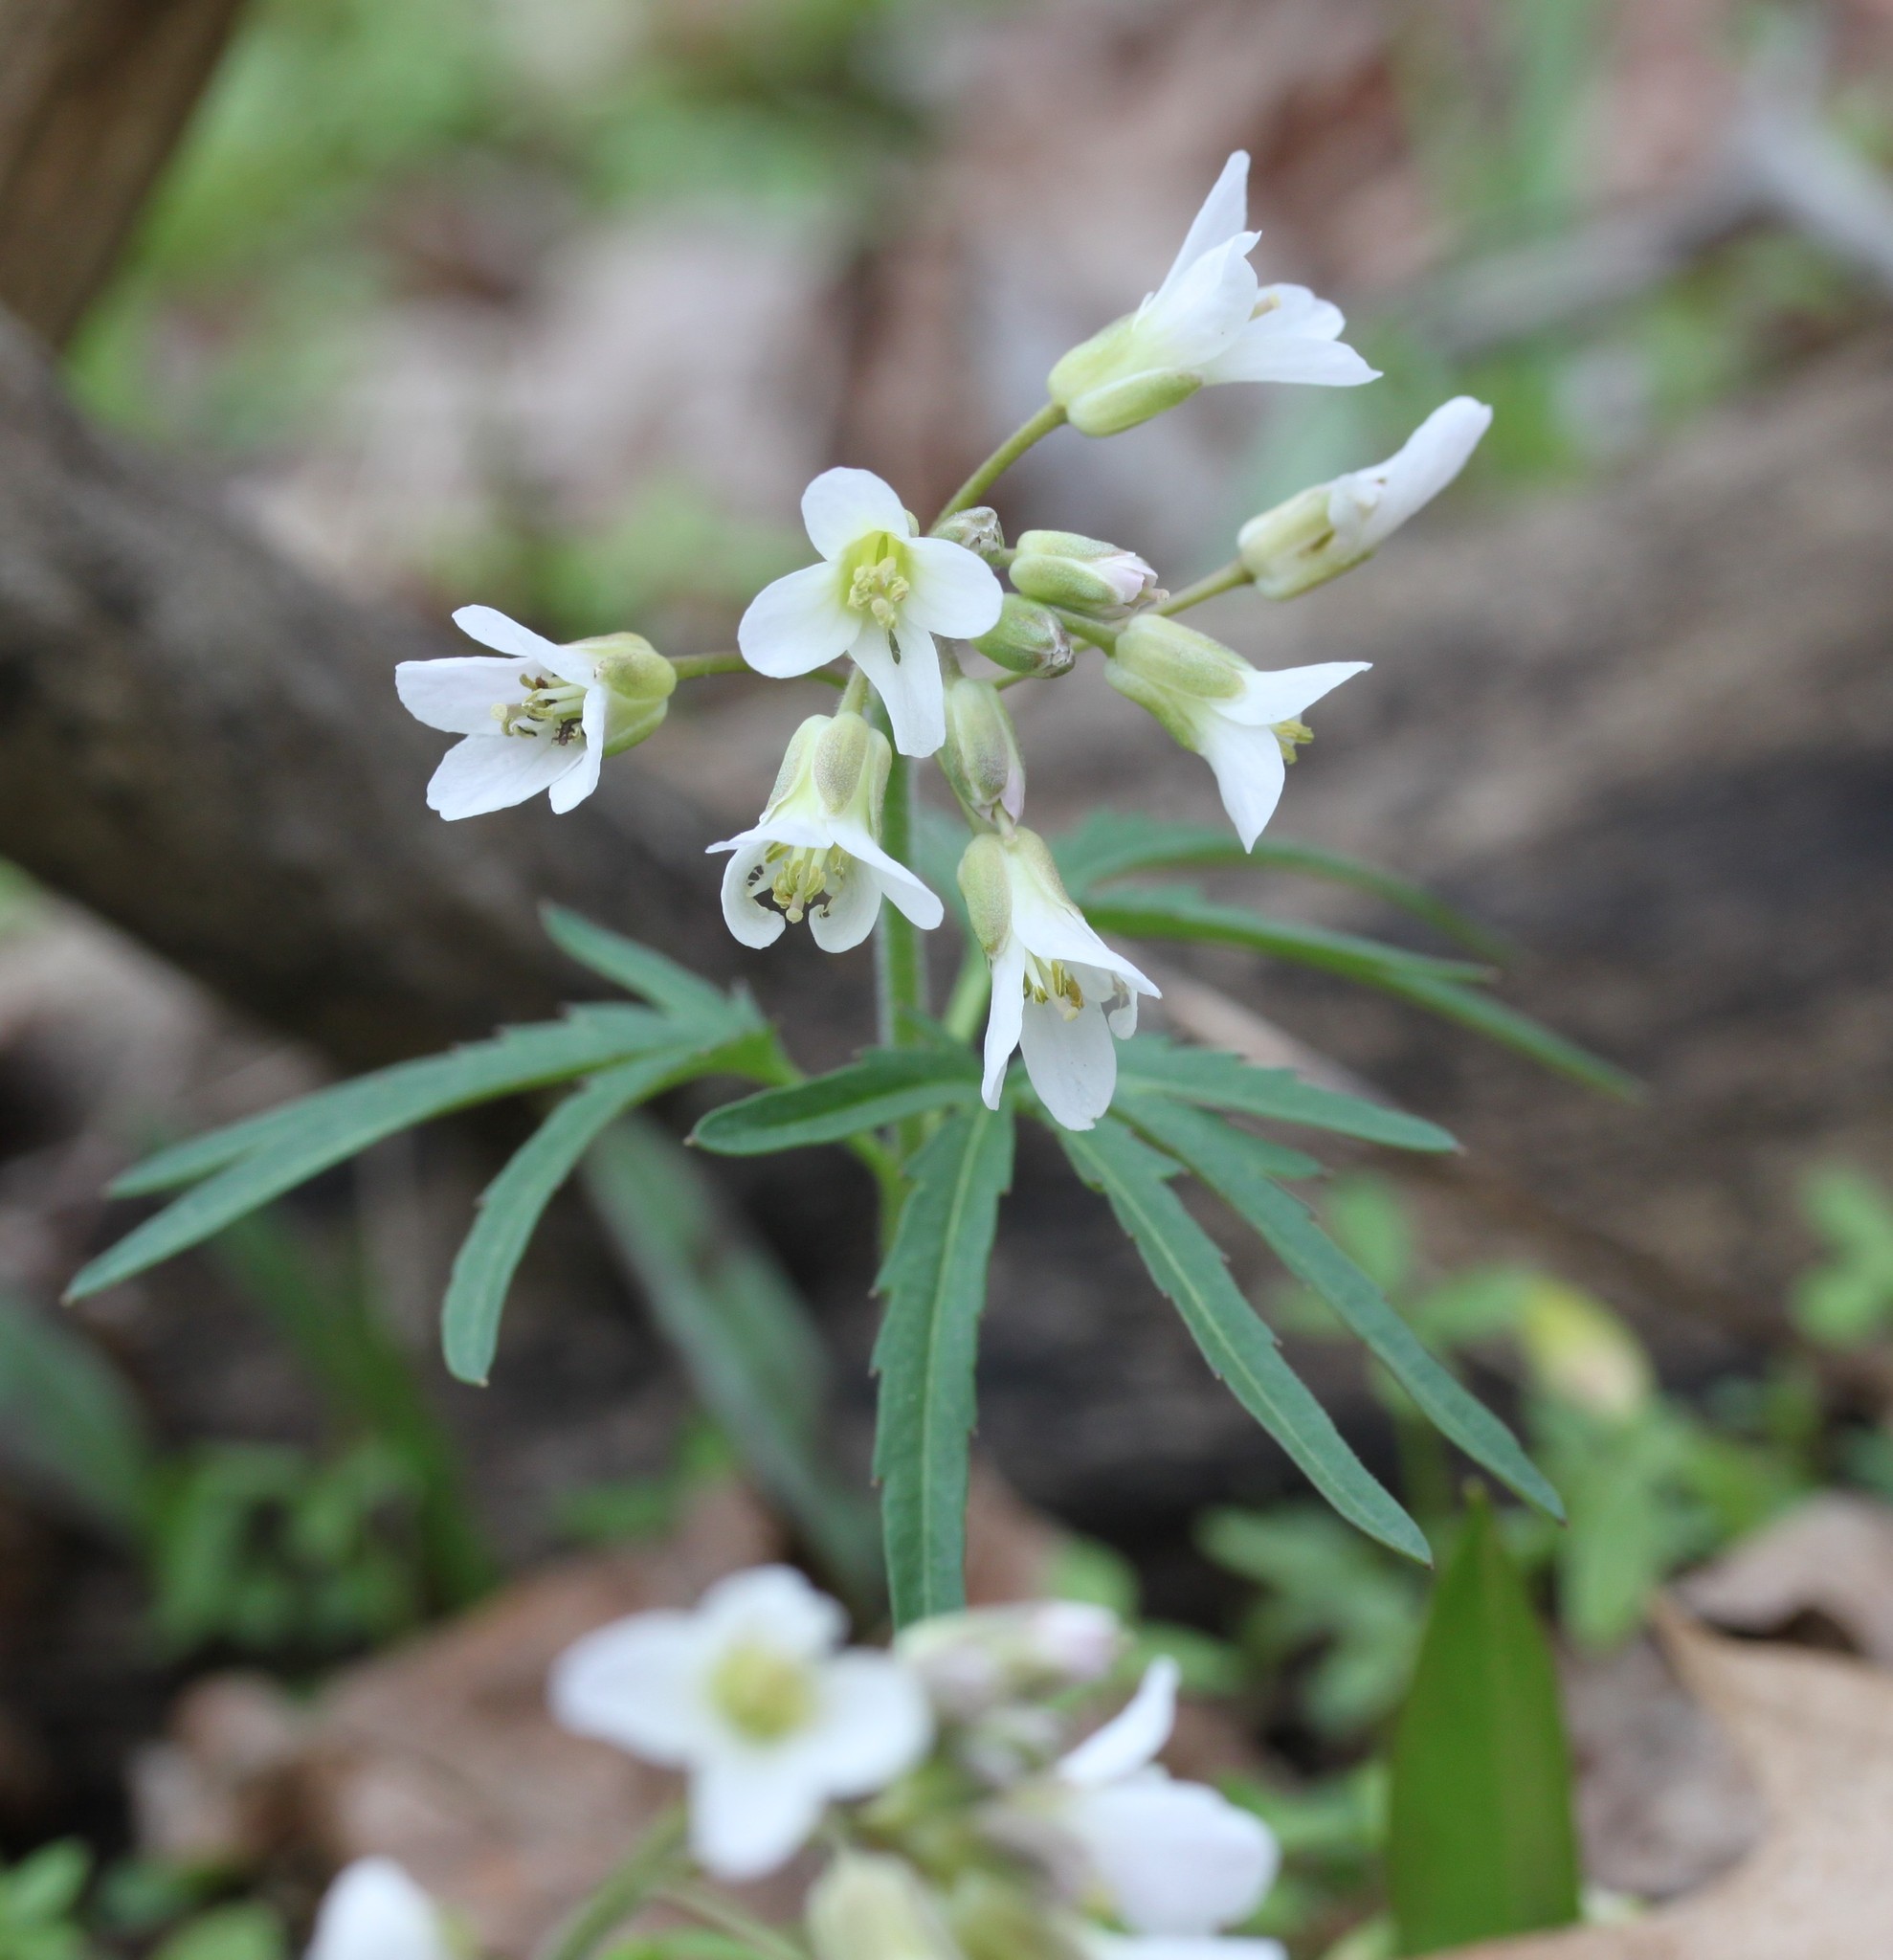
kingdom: Plantae
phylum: Tracheophyta
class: Magnoliopsida
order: Brassicales
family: Brassicaceae
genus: Cardamine
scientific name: Cardamine concatenata
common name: Cut-leaf toothcup
